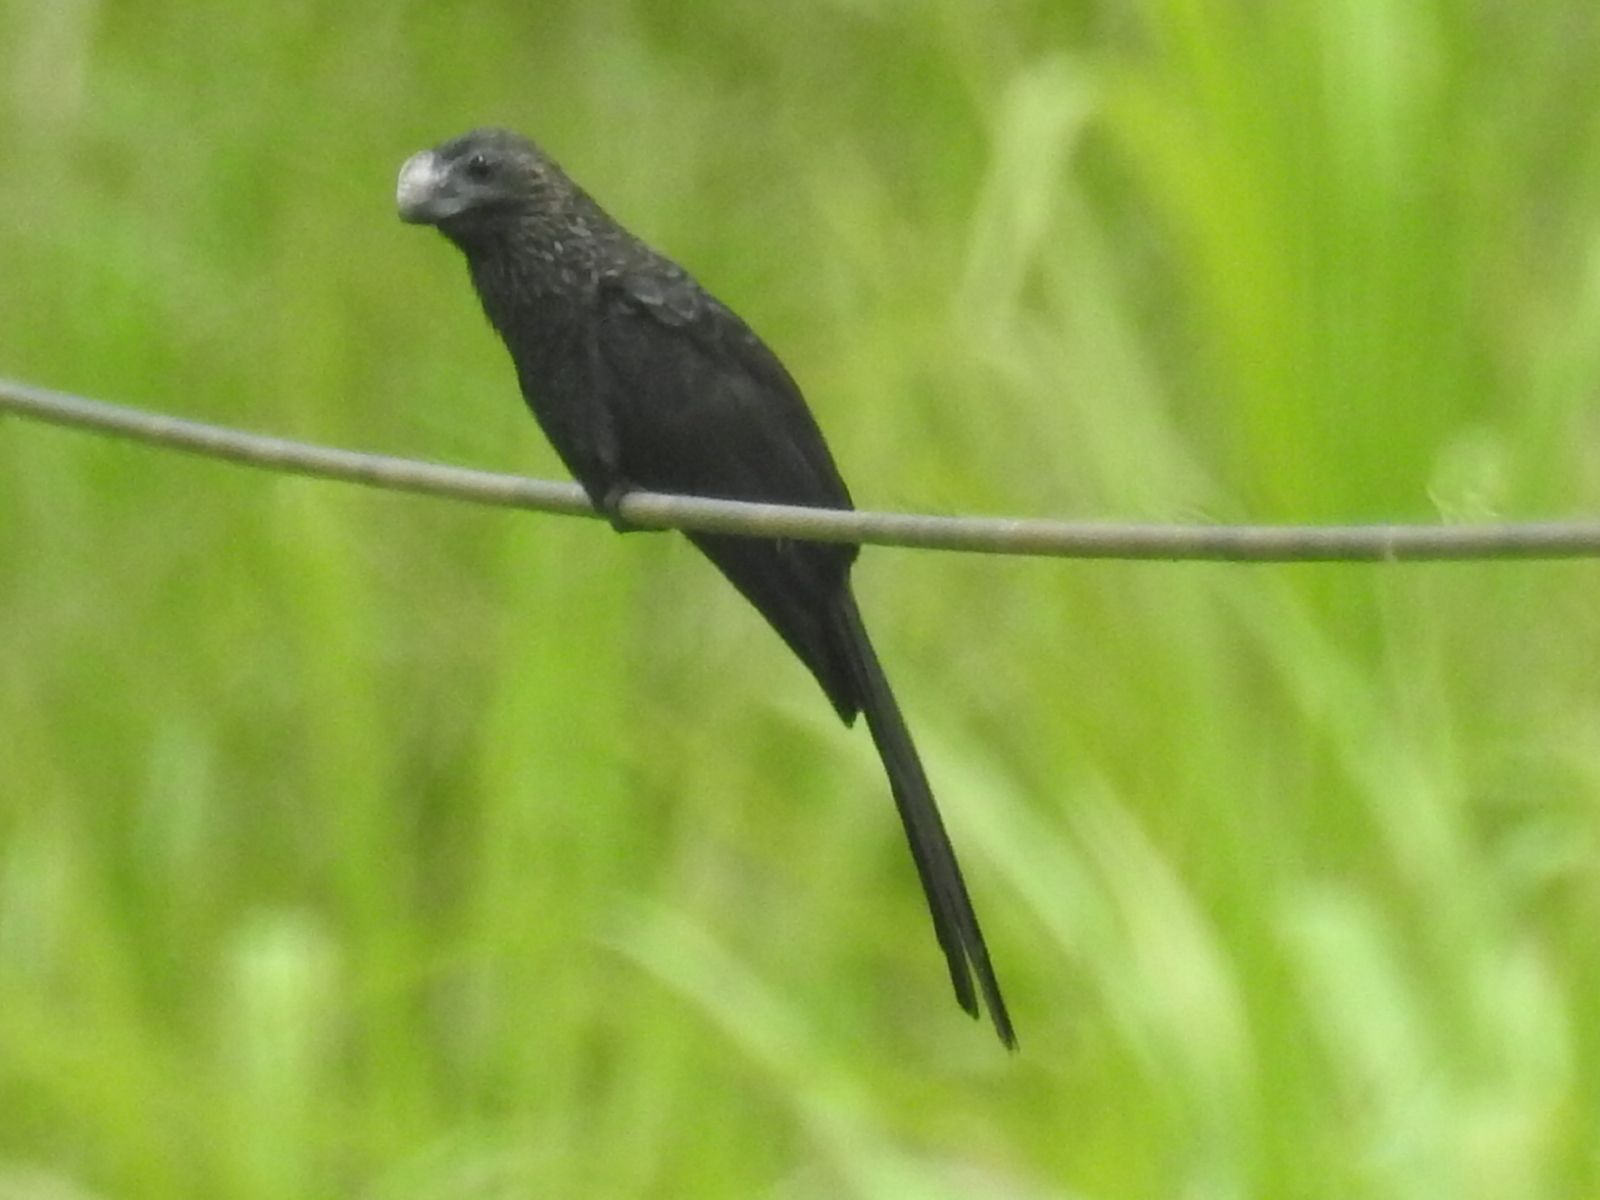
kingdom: Animalia
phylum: Chordata
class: Aves
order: Cuculiformes
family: Cuculidae
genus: Crotophaga
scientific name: Crotophaga ani
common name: Smooth-billed ani
